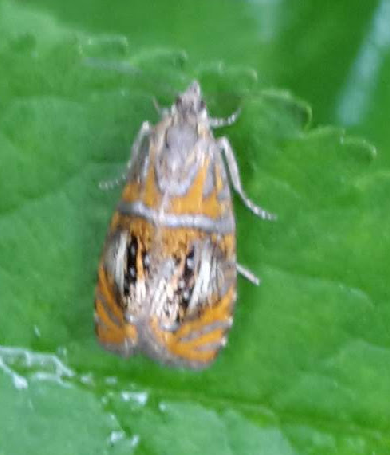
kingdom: Animalia
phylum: Arthropoda
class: Insecta
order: Lepidoptera
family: Tortricidae
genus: Olethreutes
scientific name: Olethreutes arcuella
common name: Arched marble
